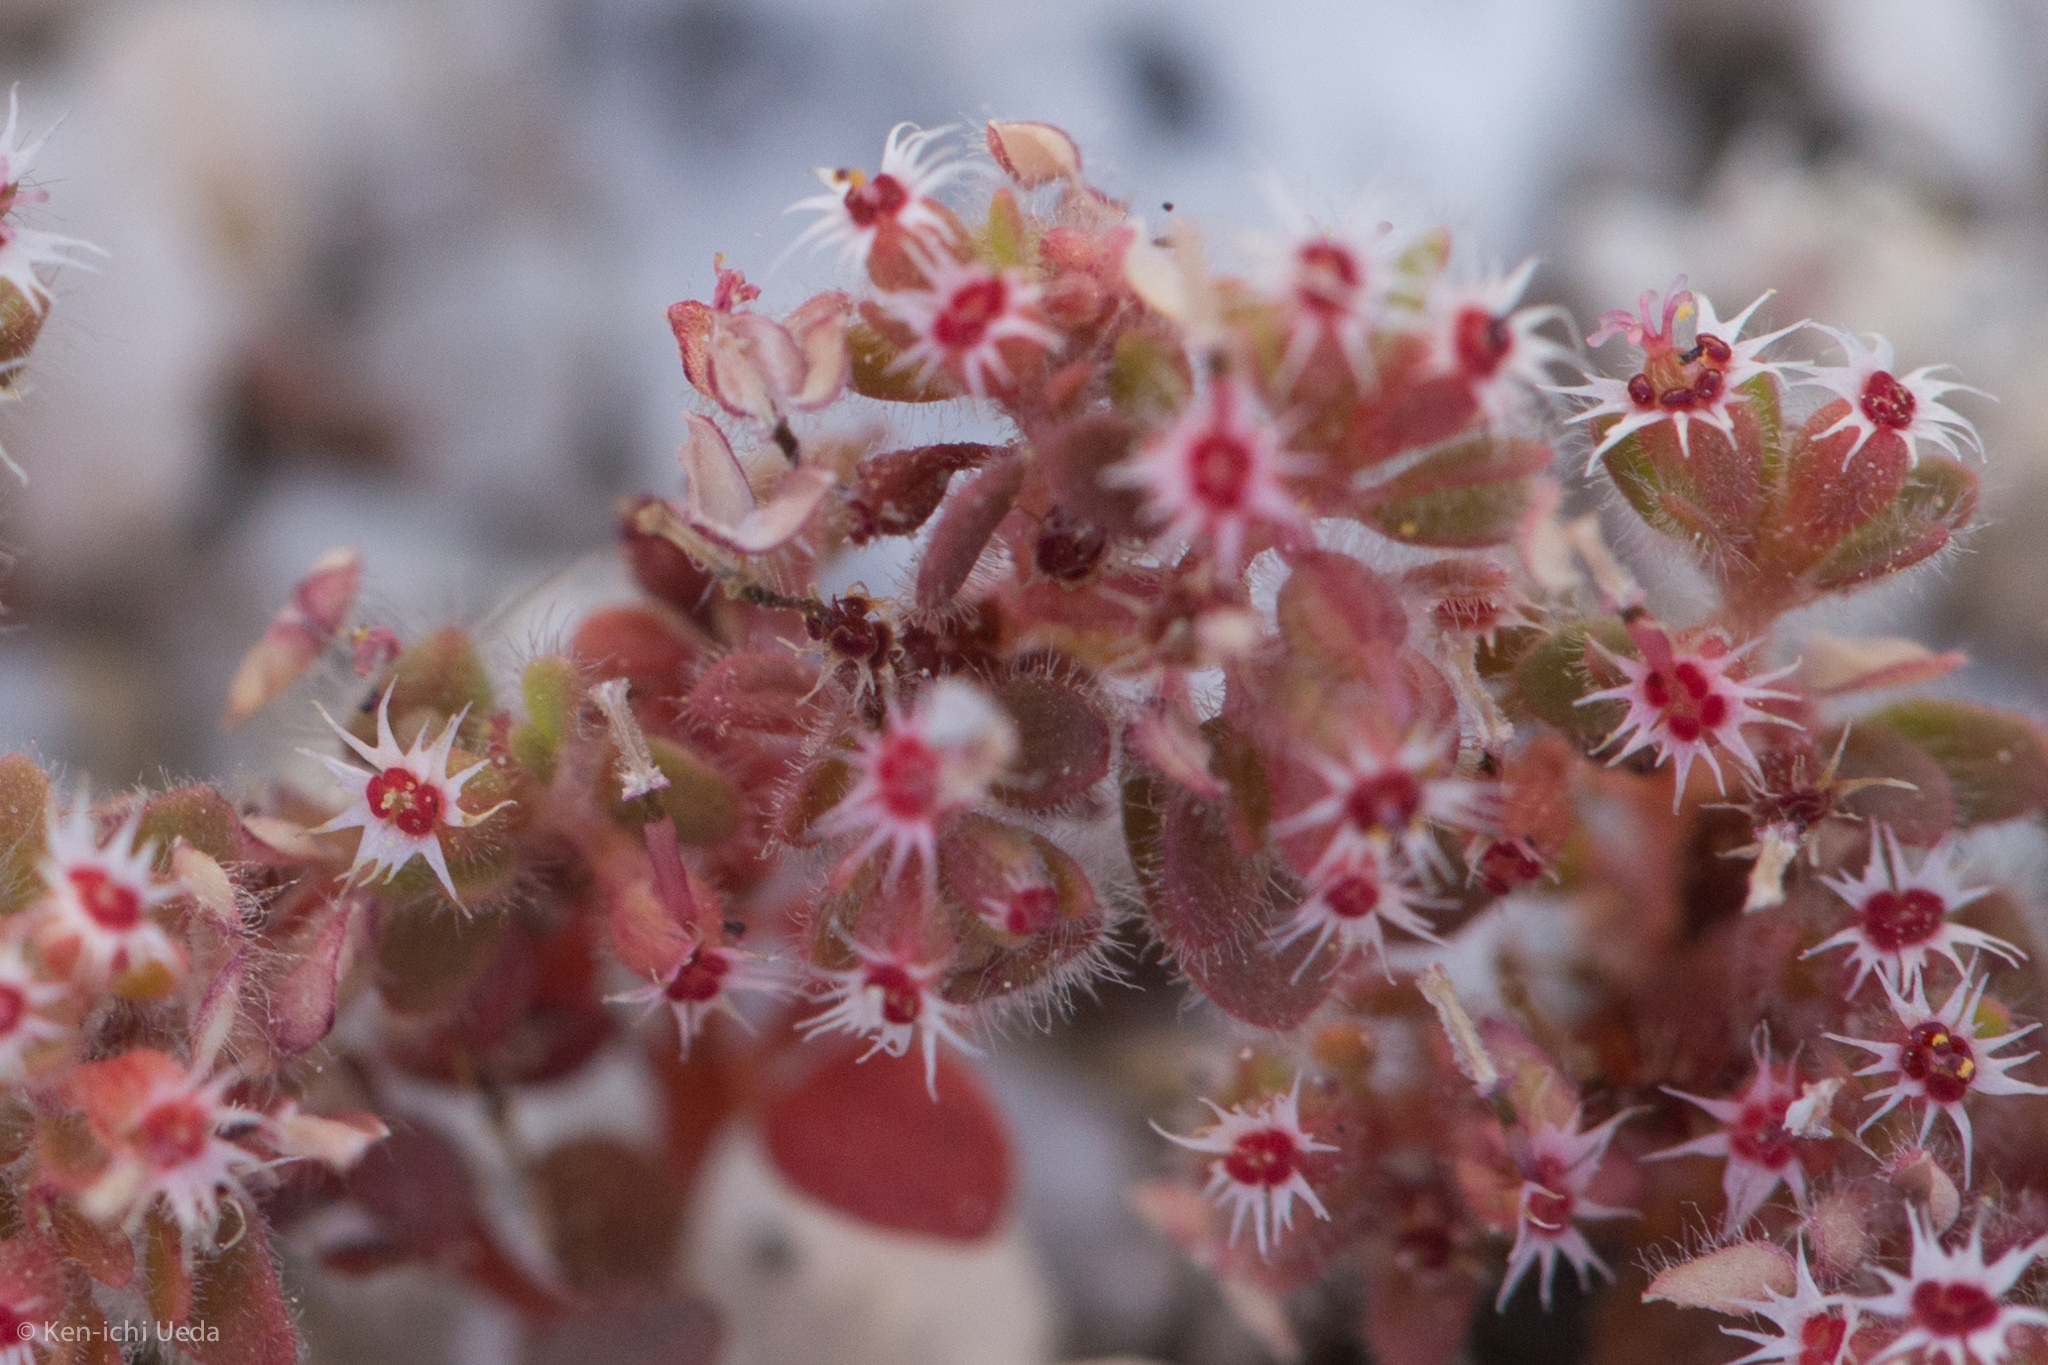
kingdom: Plantae
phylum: Tracheophyta
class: Magnoliopsida
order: Malpighiales
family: Euphorbiaceae
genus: Euphorbia
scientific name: Euphorbia setiloba
